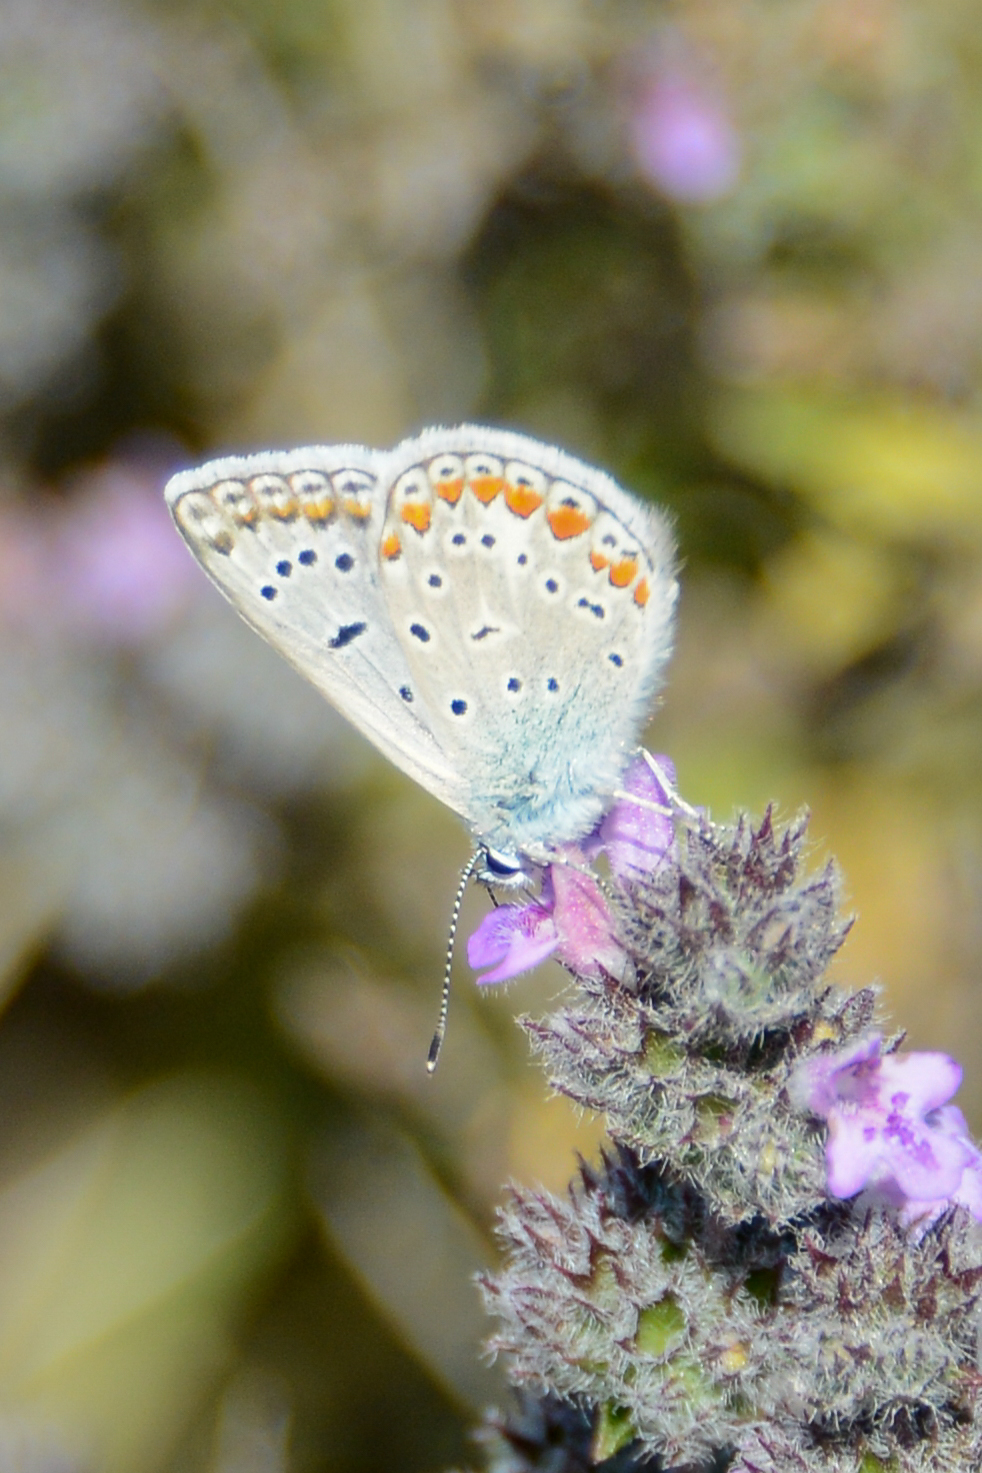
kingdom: Animalia
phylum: Arthropoda
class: Insecta
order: Lepidoptera
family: Lycaenidae
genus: Polyommatus
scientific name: Polyommatus icarus
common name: Common blue
